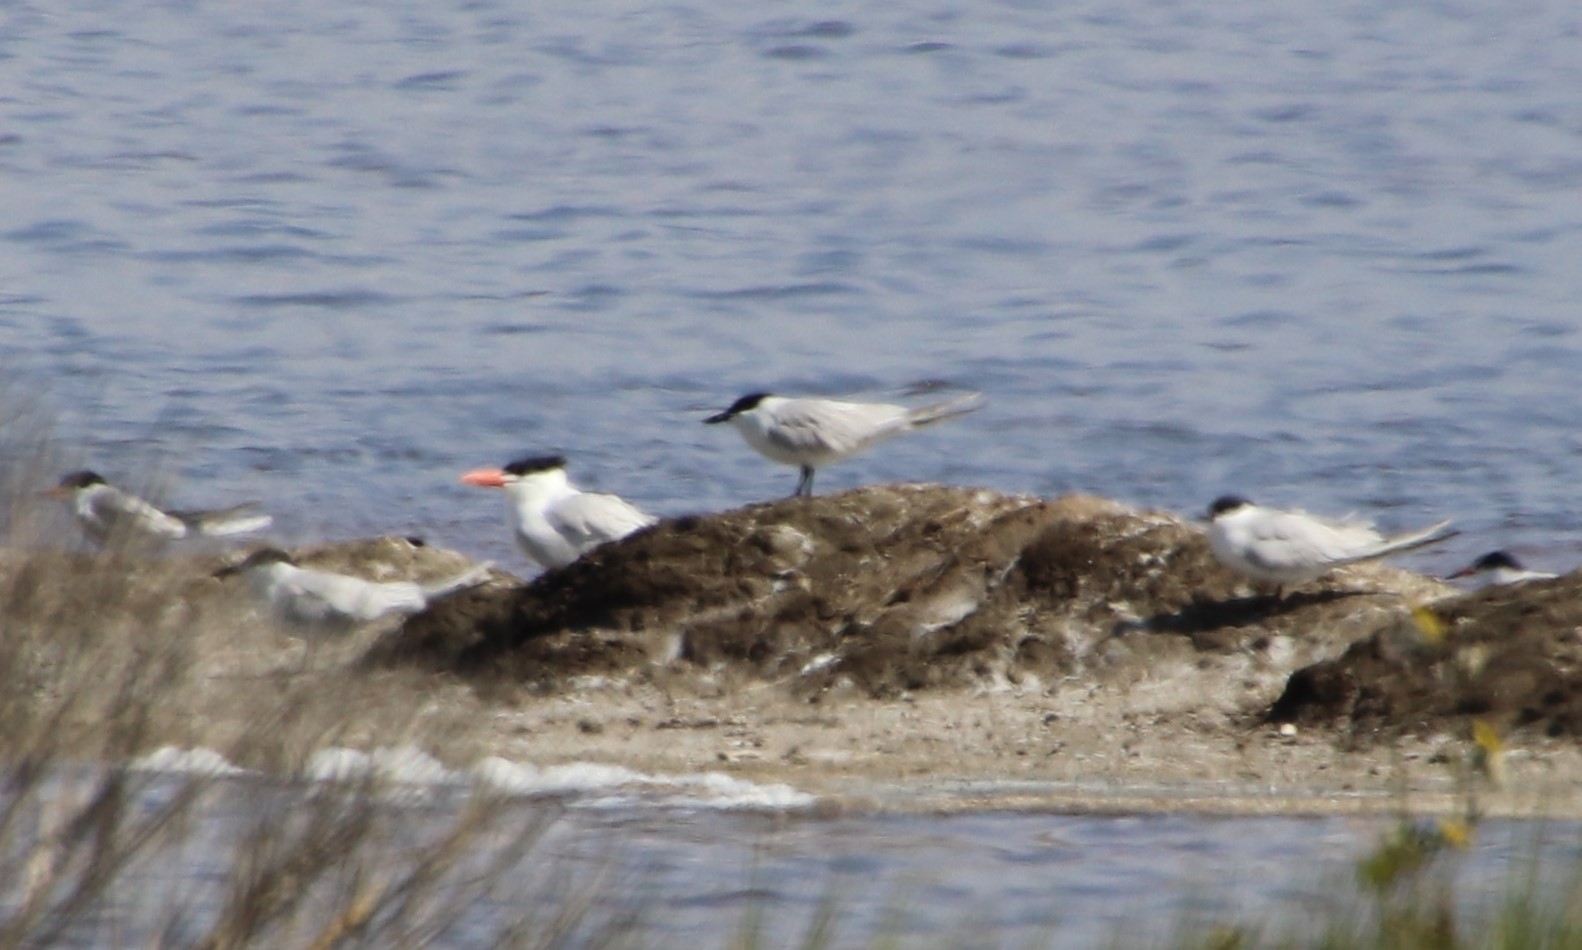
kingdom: Animalia
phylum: Chordata
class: Aves
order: Charadriiformes
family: Laridae
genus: Gelochelidon
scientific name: Gelochelidon nilotica
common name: Gull-billed tern
